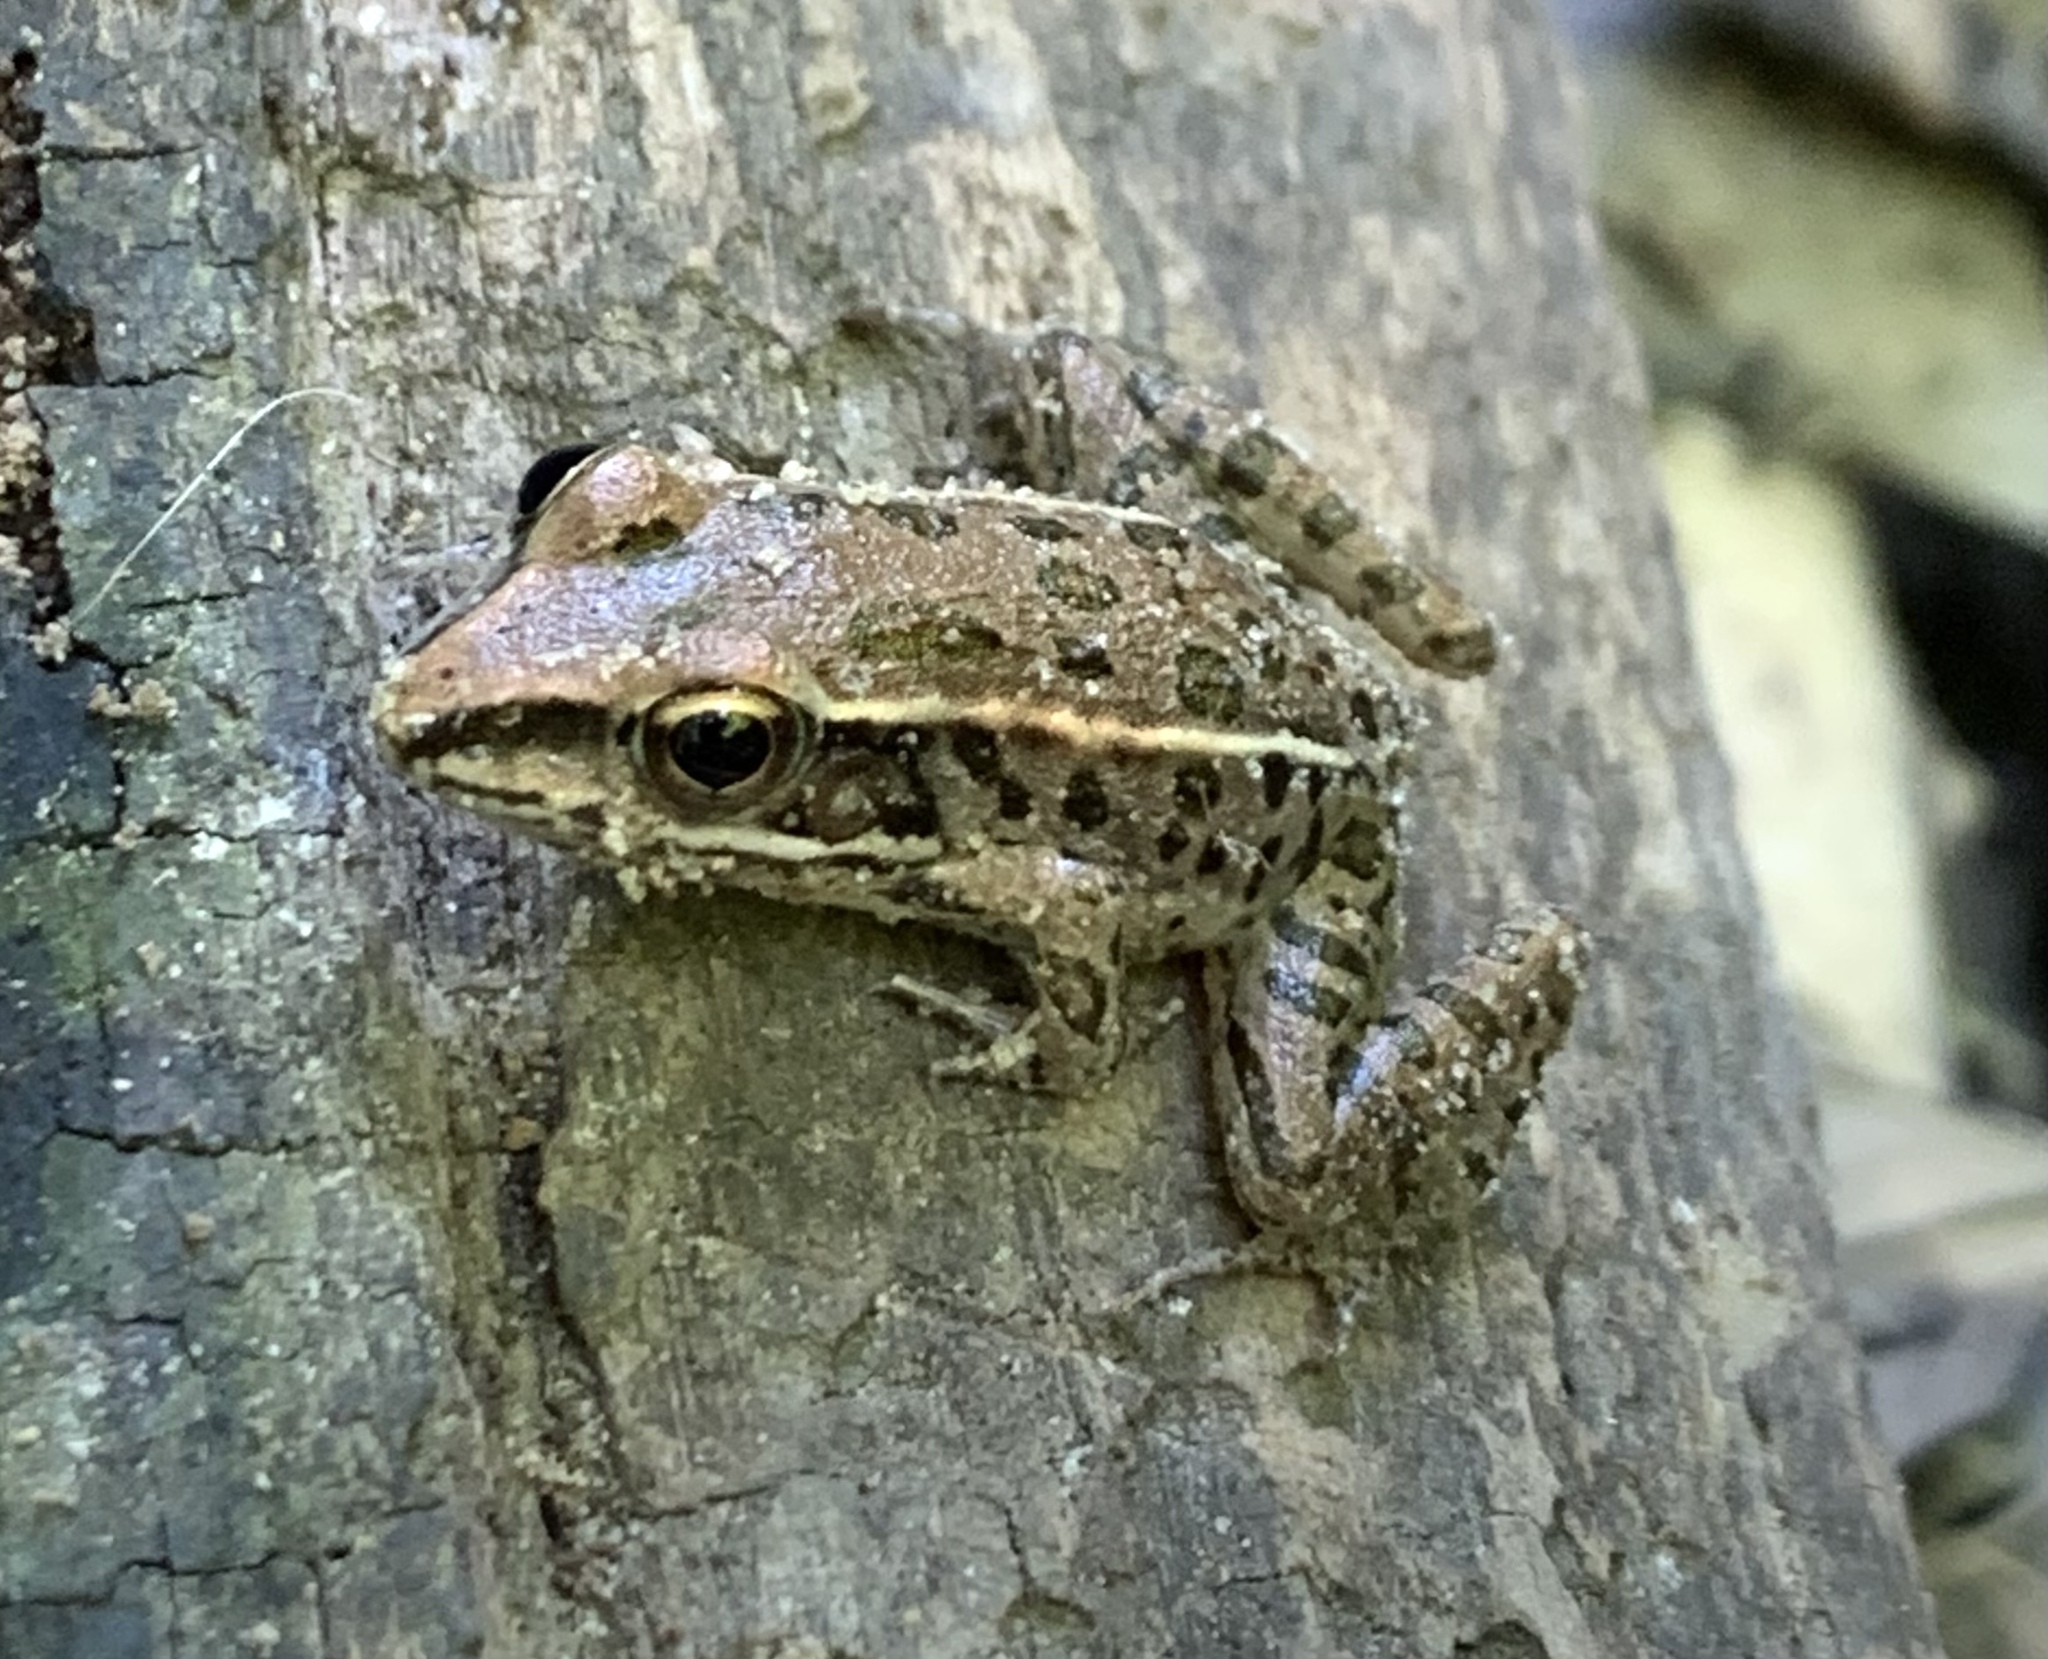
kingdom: Animalia
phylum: Chordata
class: Amphibia
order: Anura
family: Ranidae
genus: Lithobates
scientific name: Lithobates sphenocephalus
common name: Southern leopard frog
